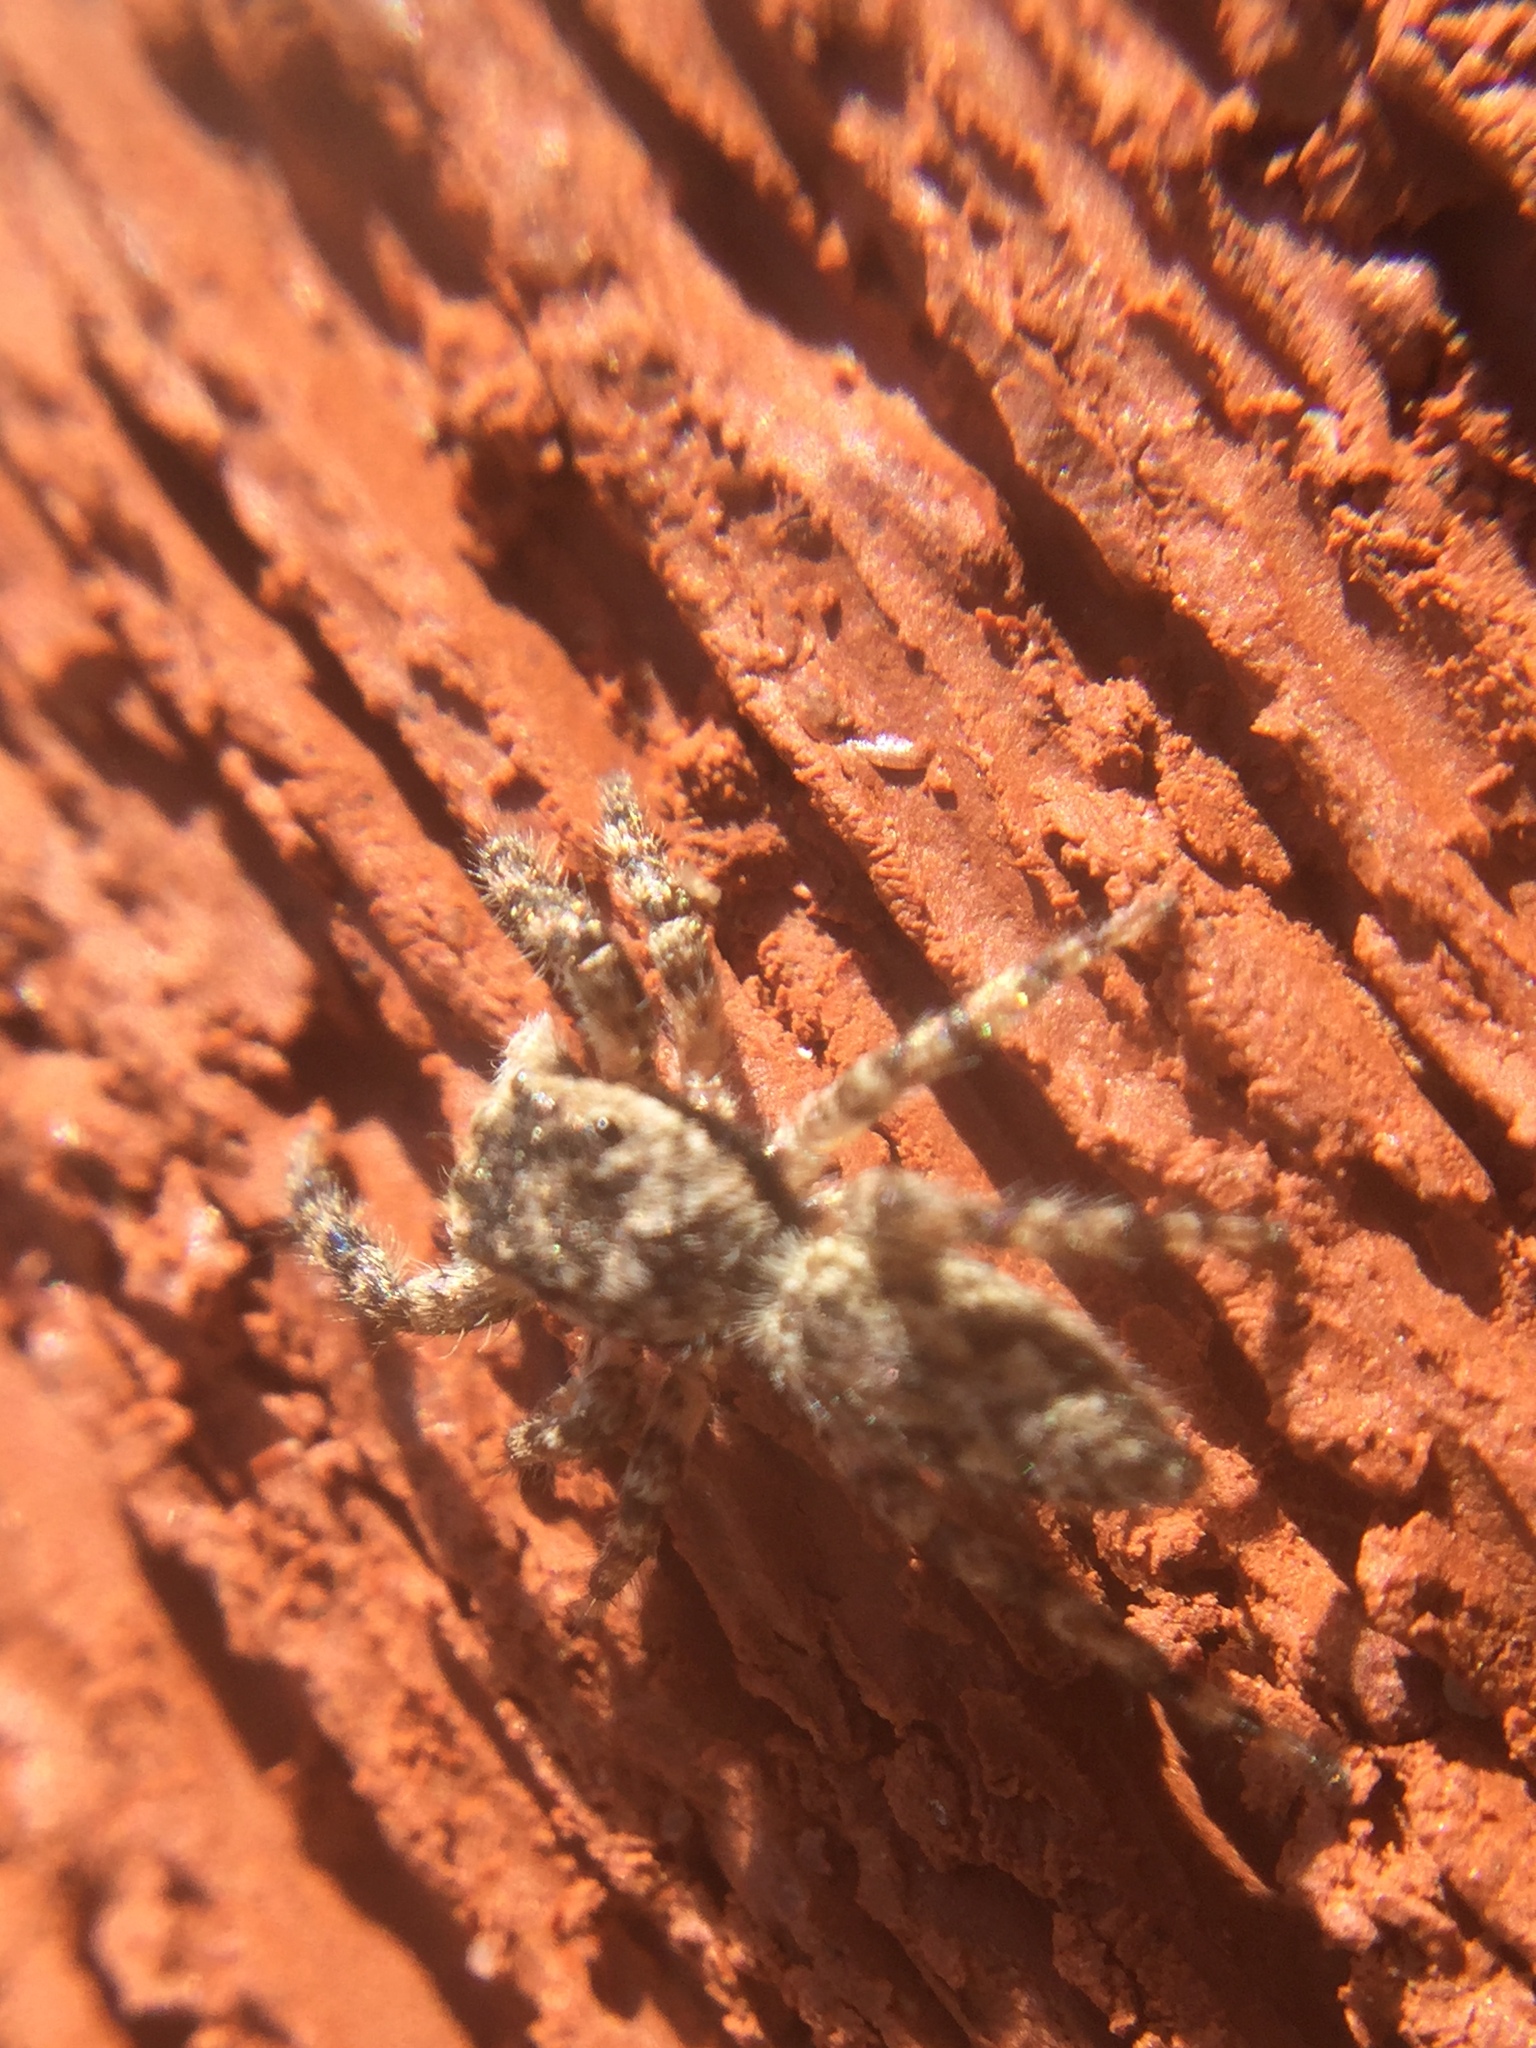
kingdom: Animalia
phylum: Arthropoda
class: Arachnida
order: Araneae
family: Salticidae
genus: Platycryptus
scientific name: Platycryptus undatus
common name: Tan jumping spider
